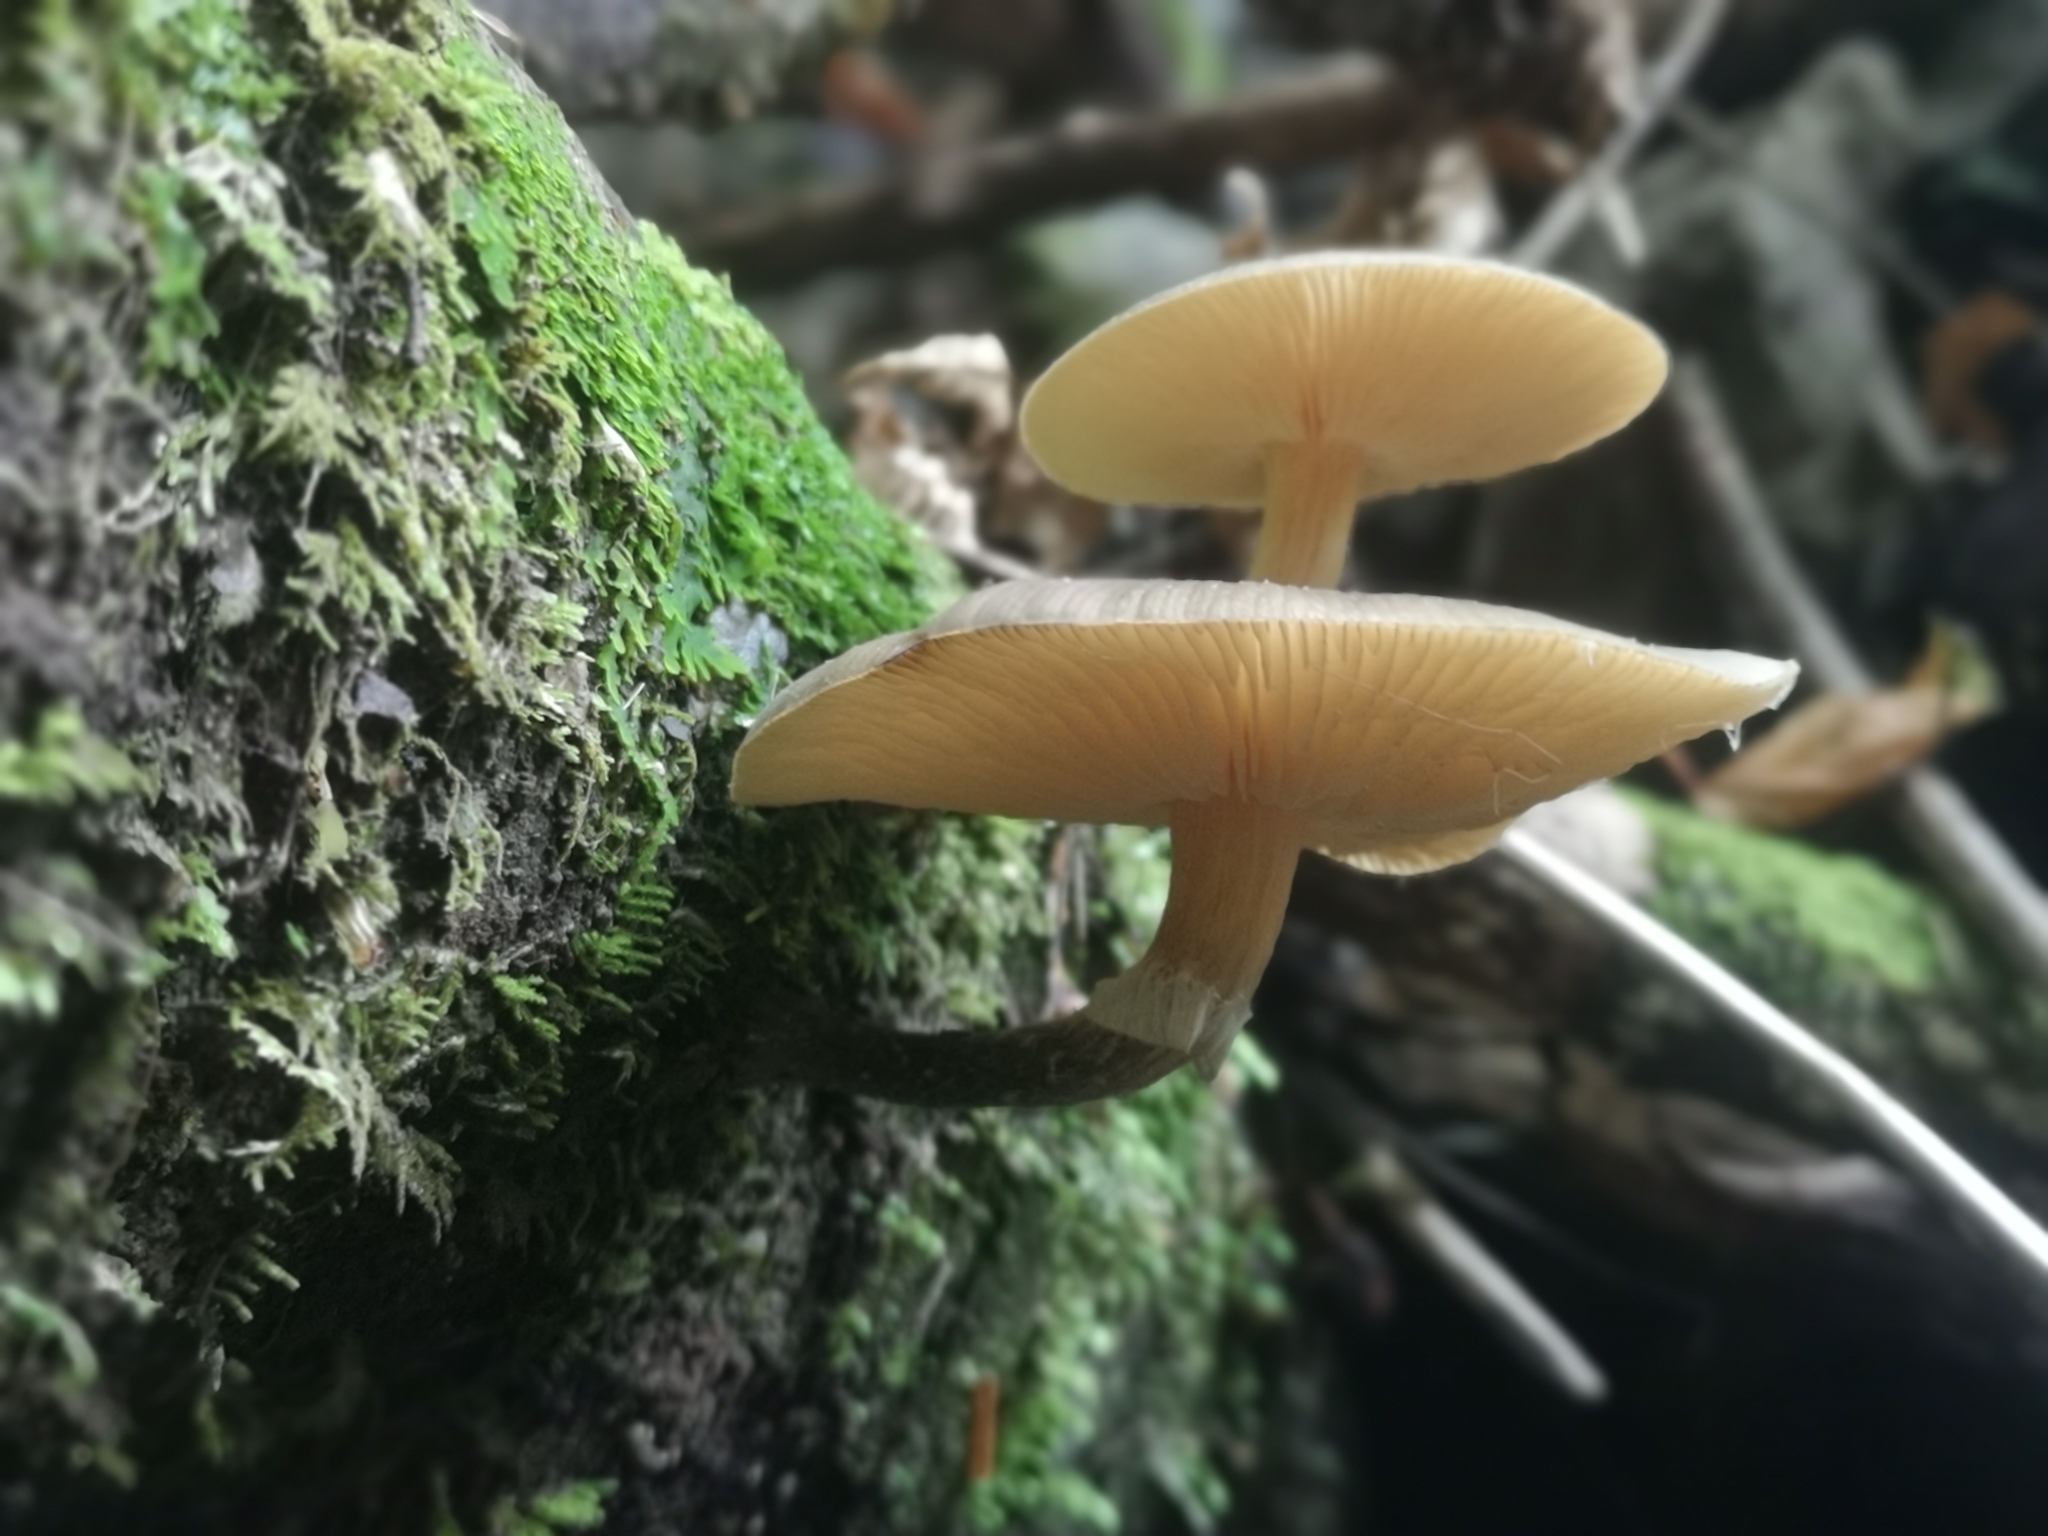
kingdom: Fungi
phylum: Basidiomycota
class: Agaricomycetes
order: Agaricales
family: Physalacriaceae
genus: Armillaria
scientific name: Armillaria novae-zelandiae
